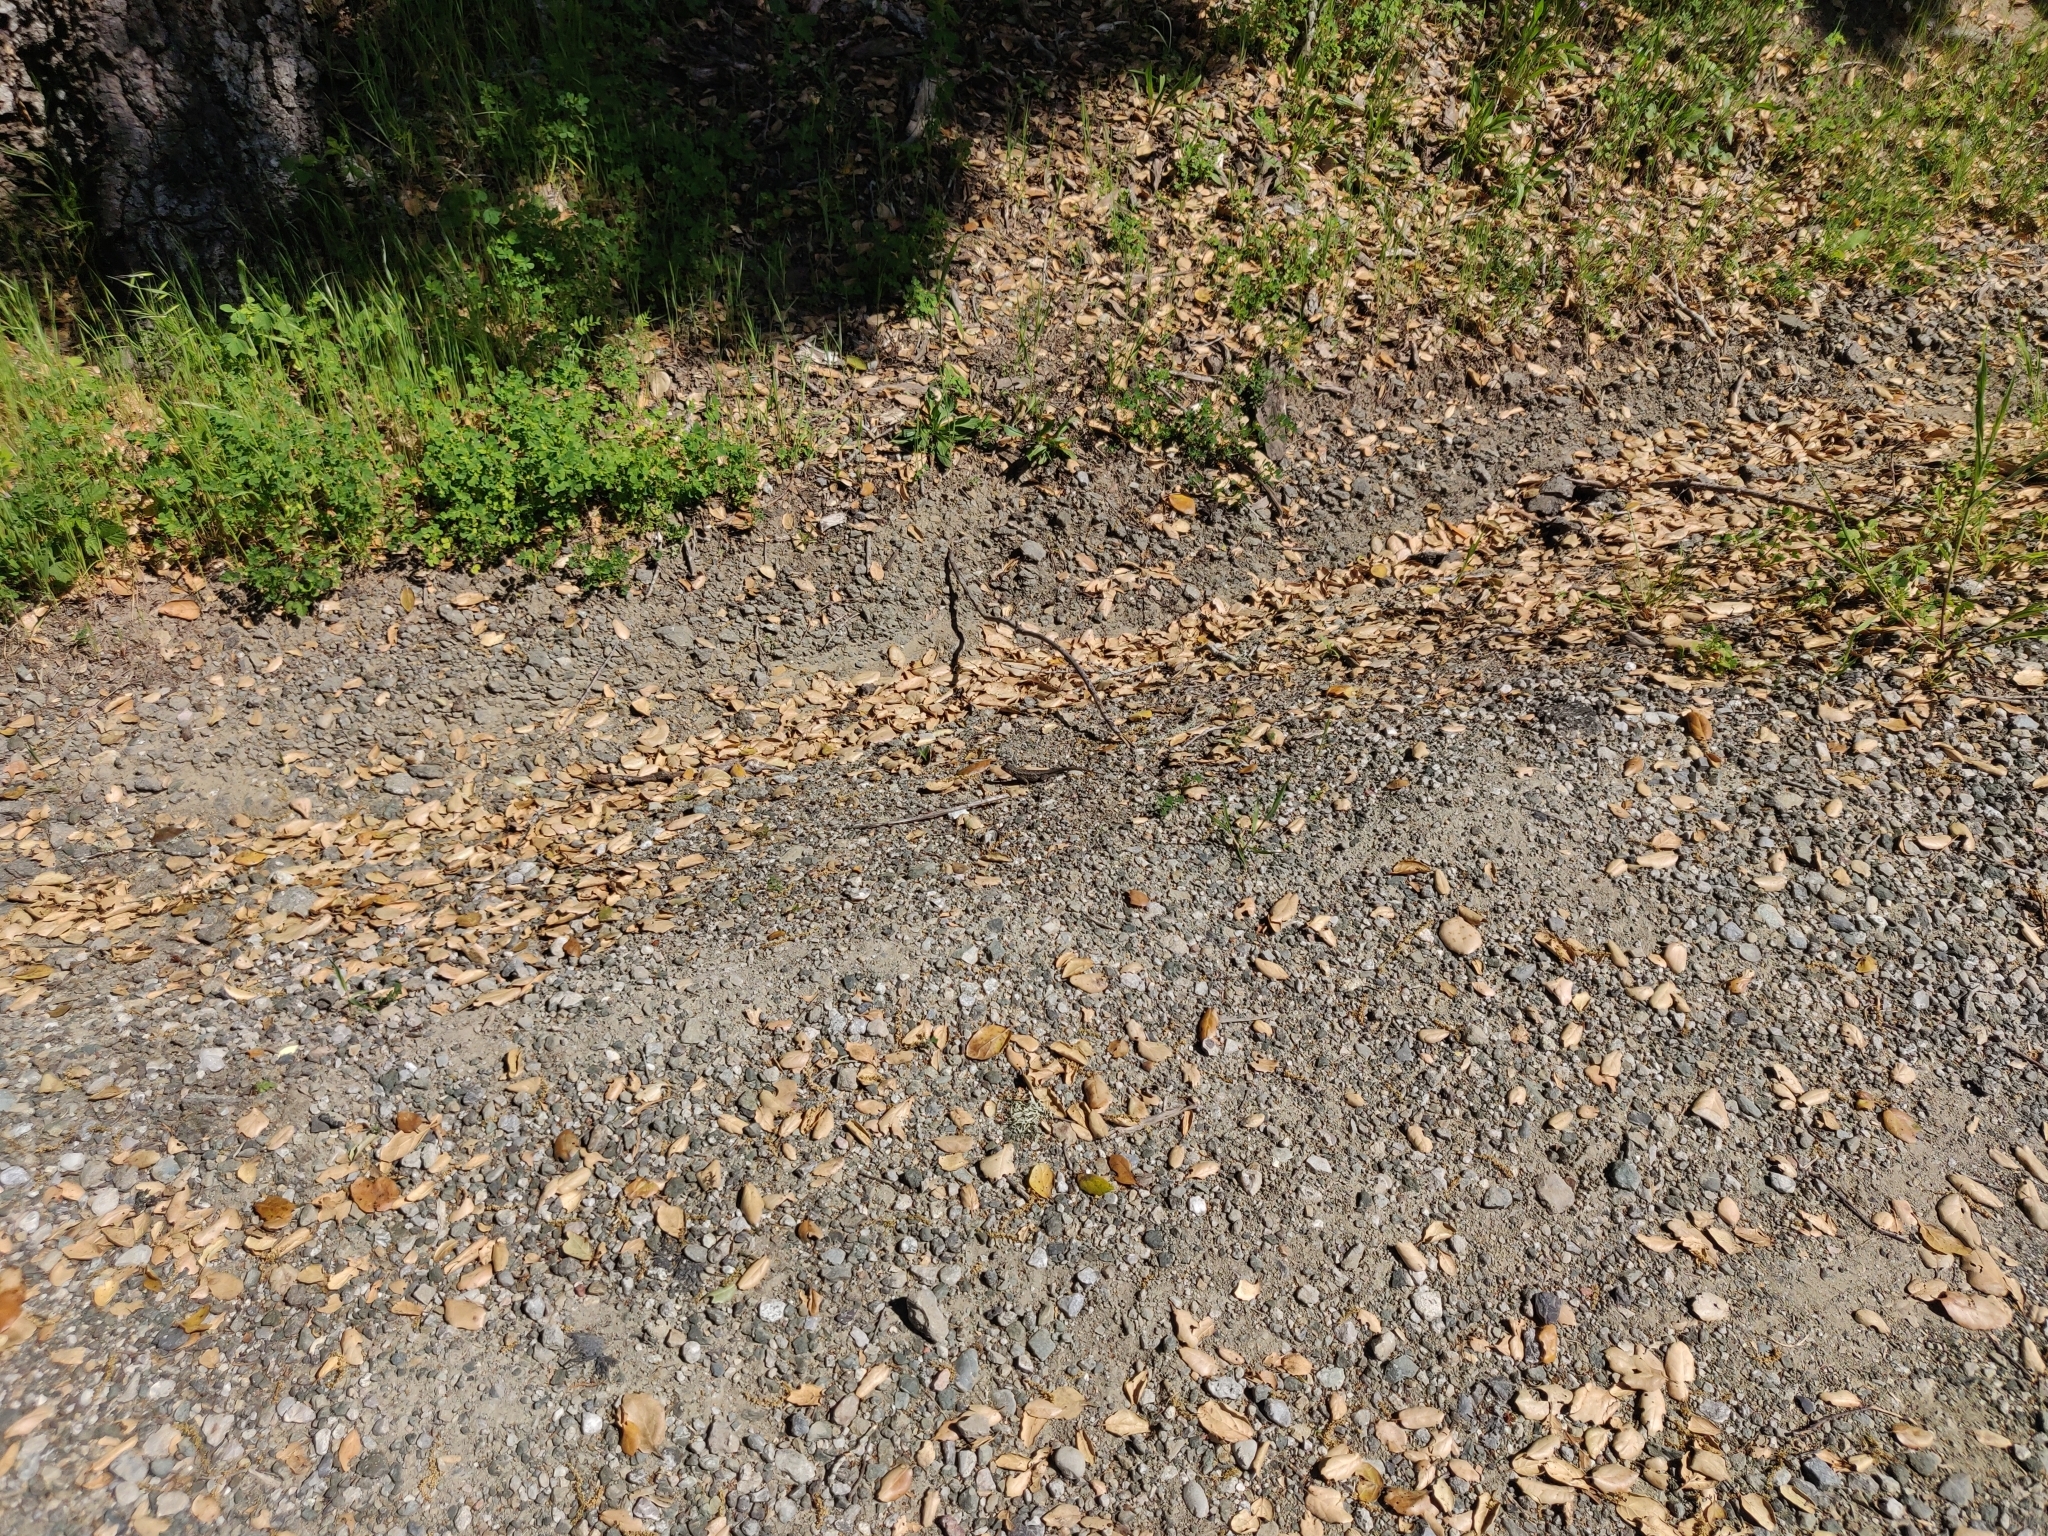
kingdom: Animalia
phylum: Chordata
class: Squamata
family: Phrynosomatidae
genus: Sceloporus
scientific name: Sceloporus occidentalis
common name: Western fence lizard
